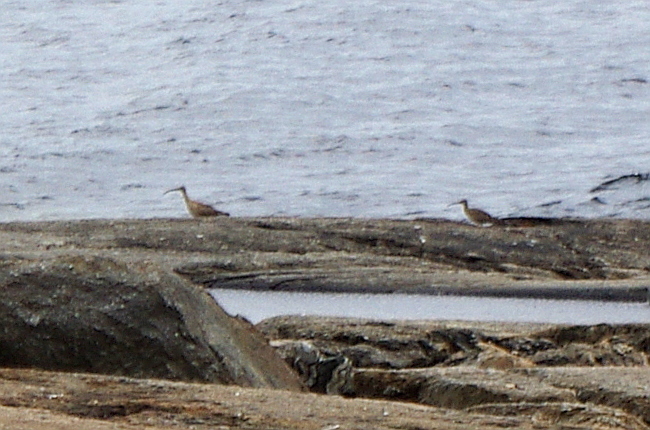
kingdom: Animalia
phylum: Chordata
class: Aves
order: Charadriiformes
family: Scolopacidae
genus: Numenius
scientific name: Numenius phaeopus
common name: Whimbrel
